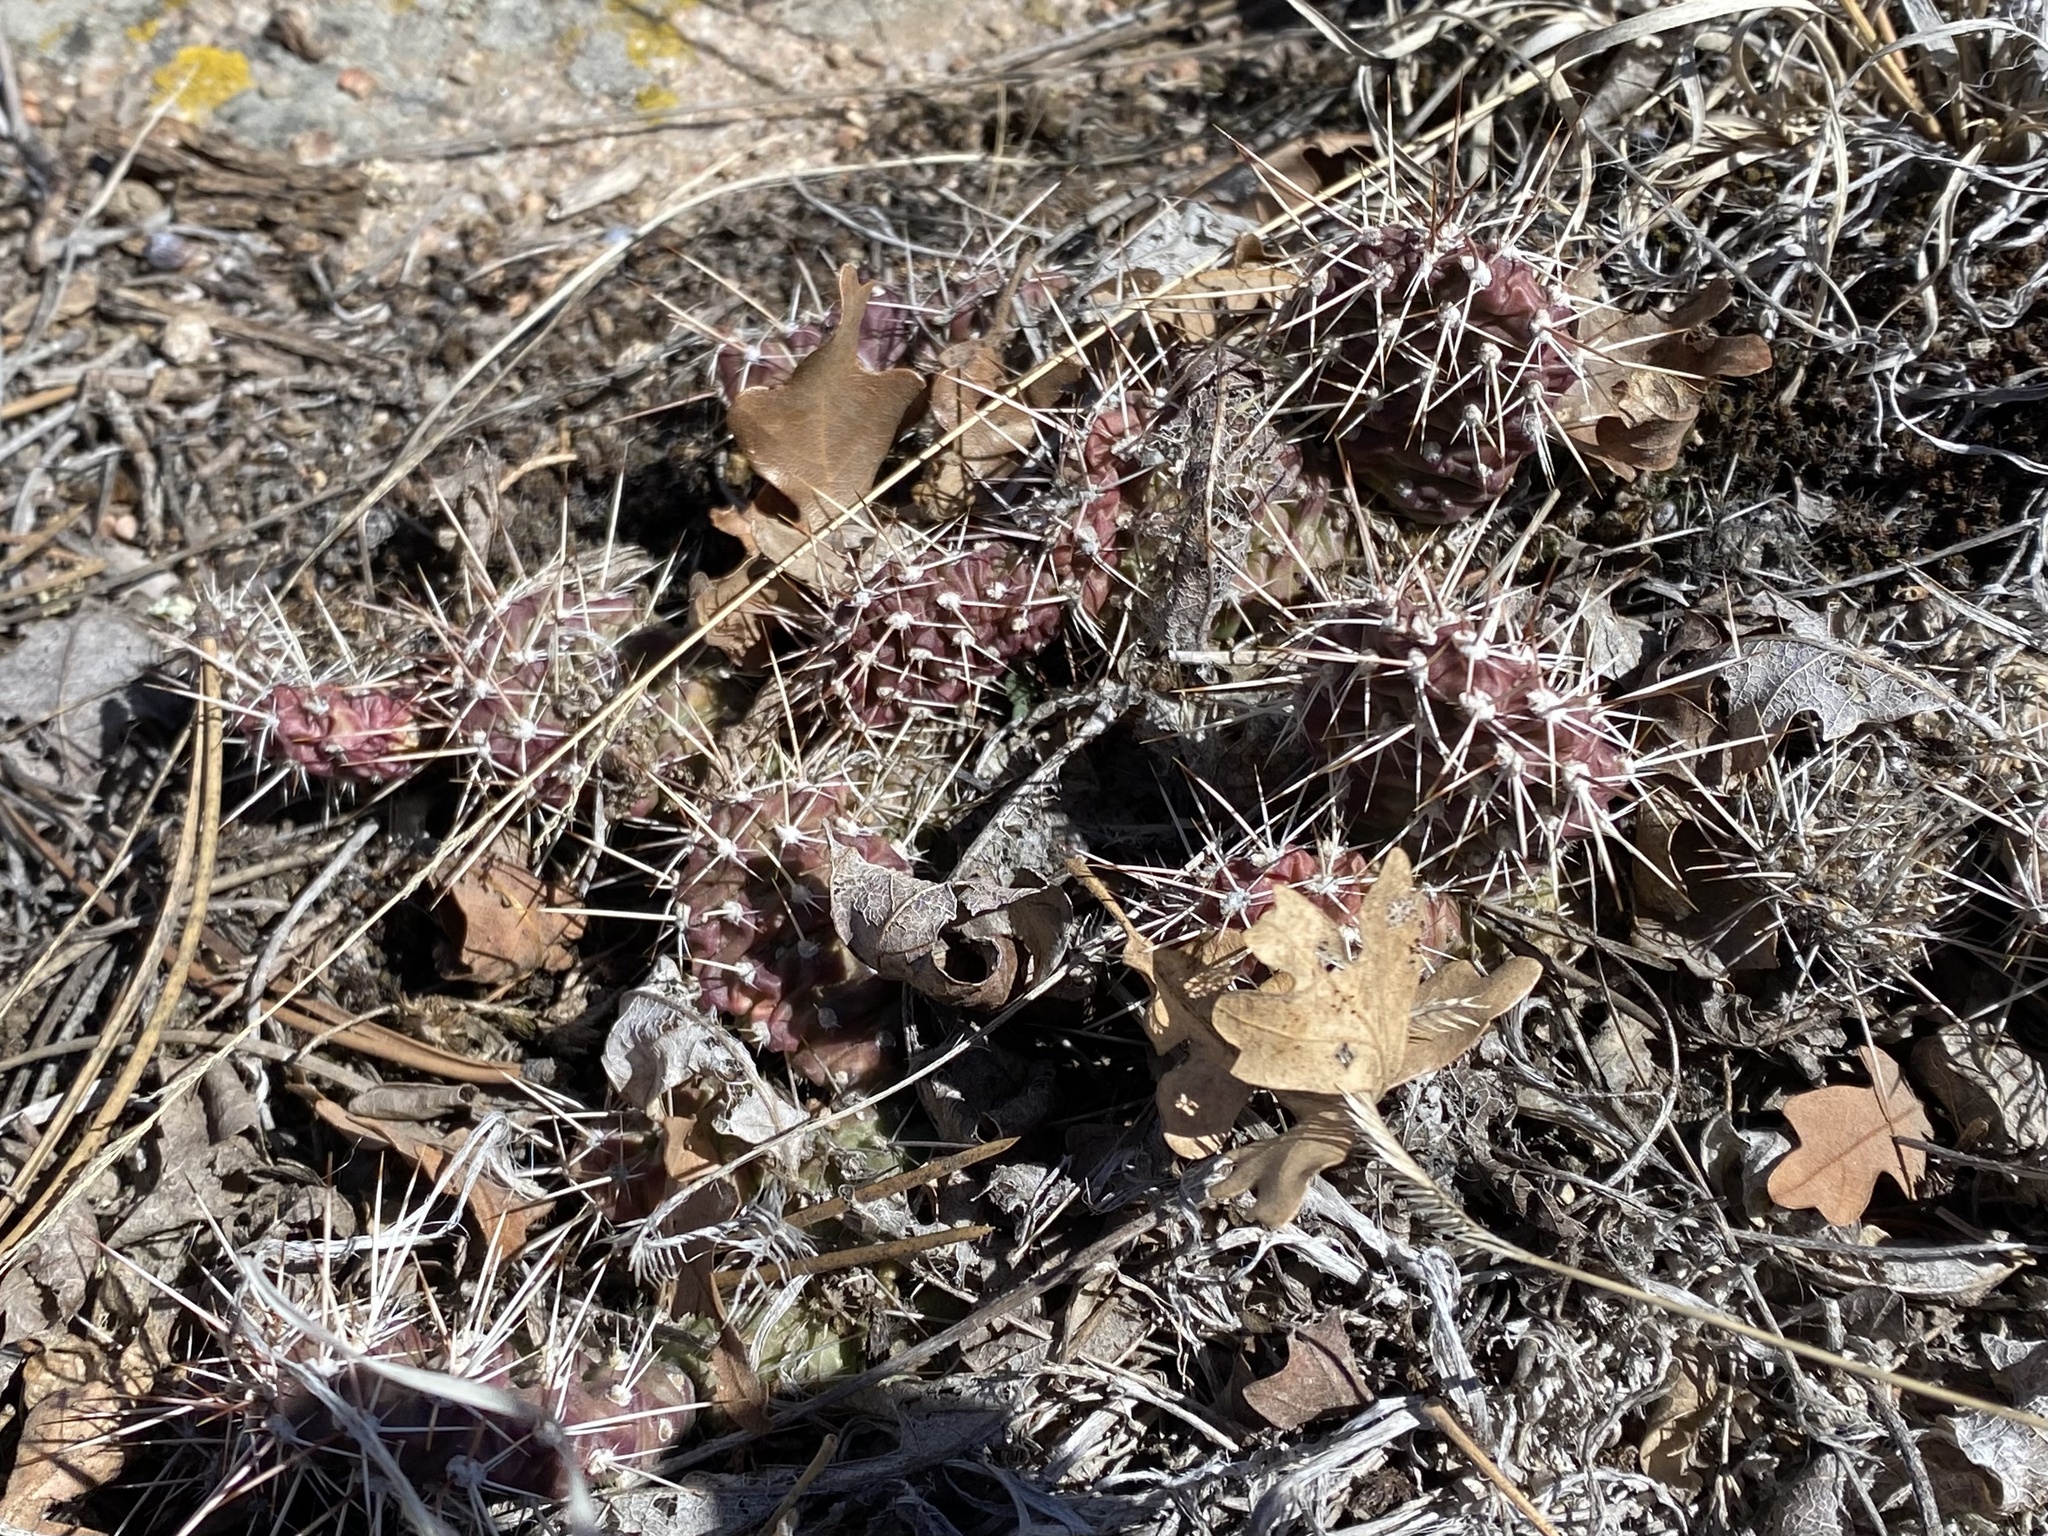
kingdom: Plantae
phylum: Tracheophyta
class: Magnoliopsida
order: Caryophyllales
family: Cactaceae
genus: Opuntia
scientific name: Opuntia fragilis
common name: Brittle cactus
